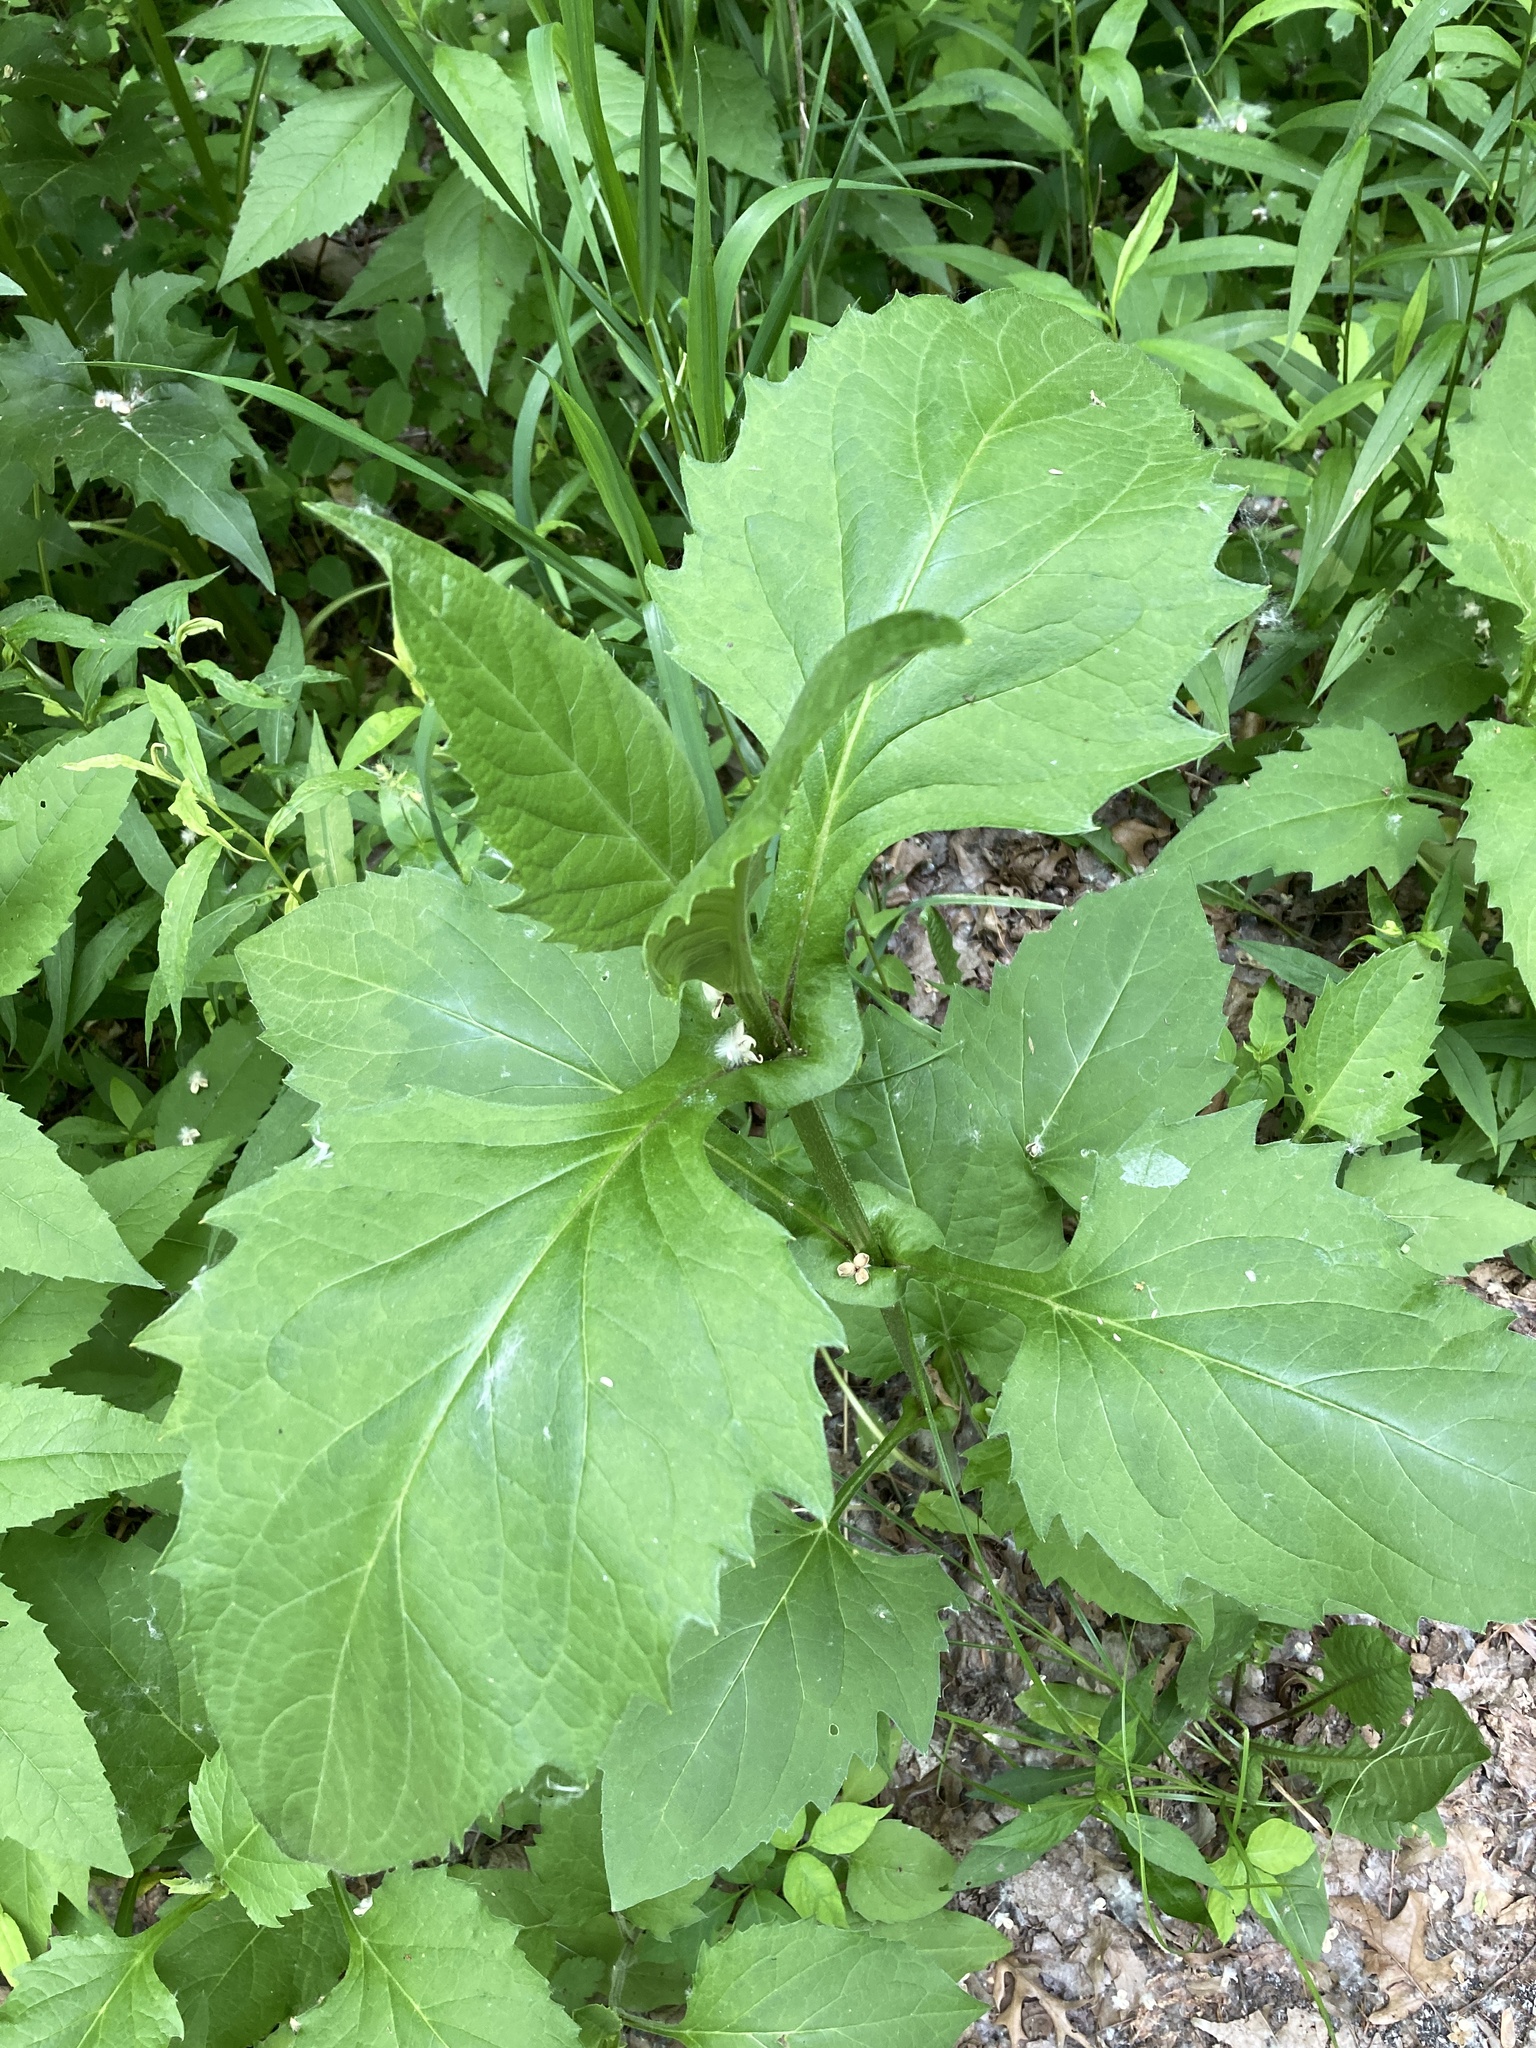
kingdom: Plantae
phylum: Tracheophyta
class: Magnoliopsida
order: Asterales
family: Asteraceae
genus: Silphium
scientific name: Silphium perfoliatum
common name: Cup-plant
